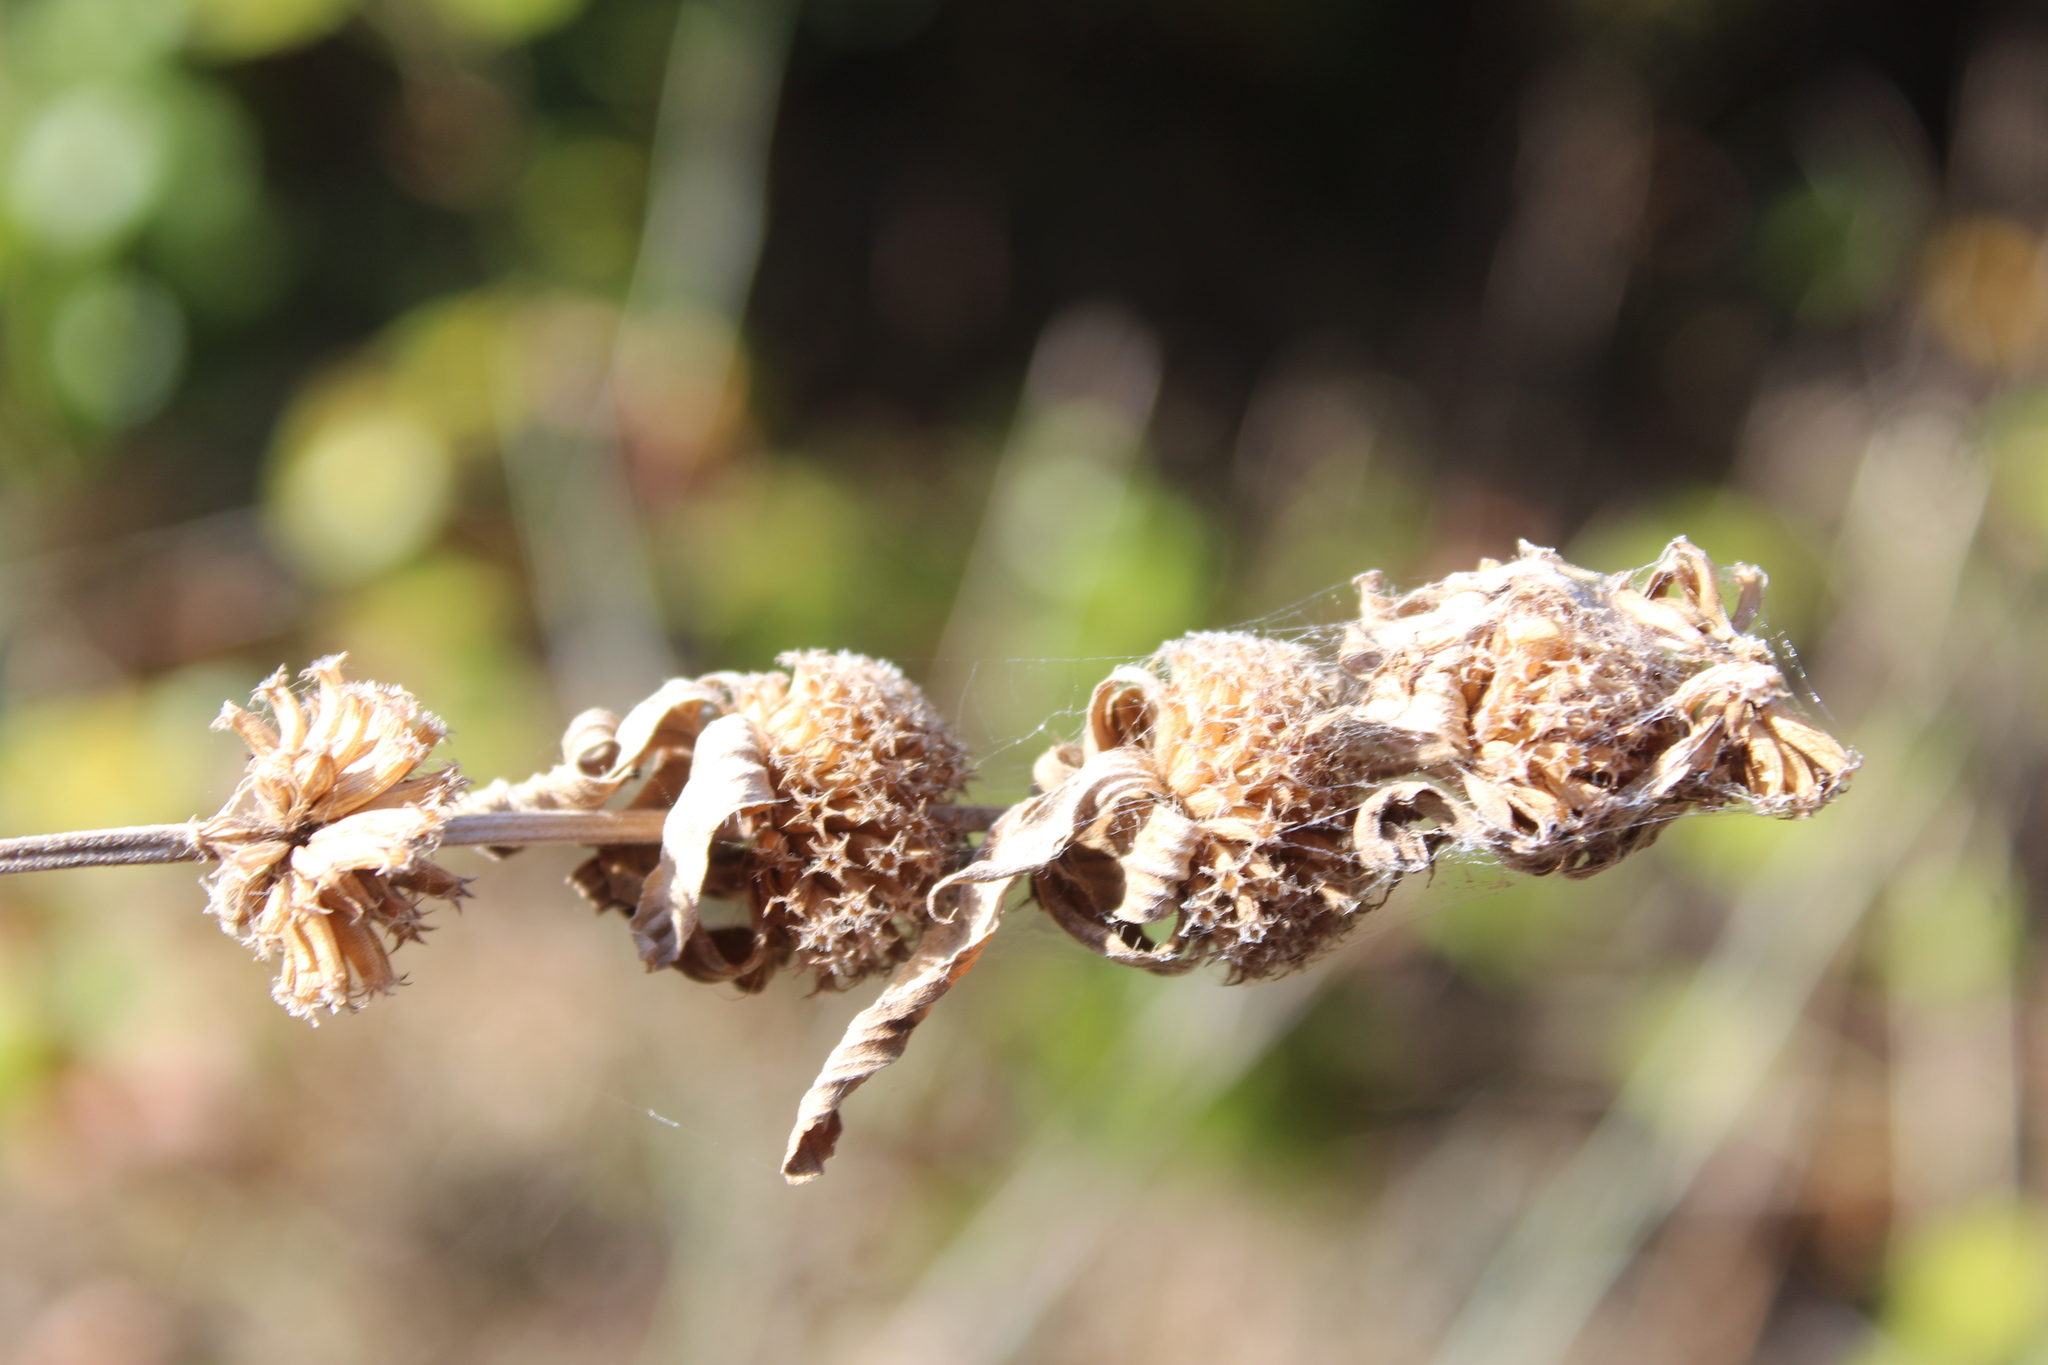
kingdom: Plantae
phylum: Tracheophyta
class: Magnoliopsida
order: Lamiales
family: Lamiaceae
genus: Monarda
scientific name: Monarda punctata
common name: Dotted monarda
